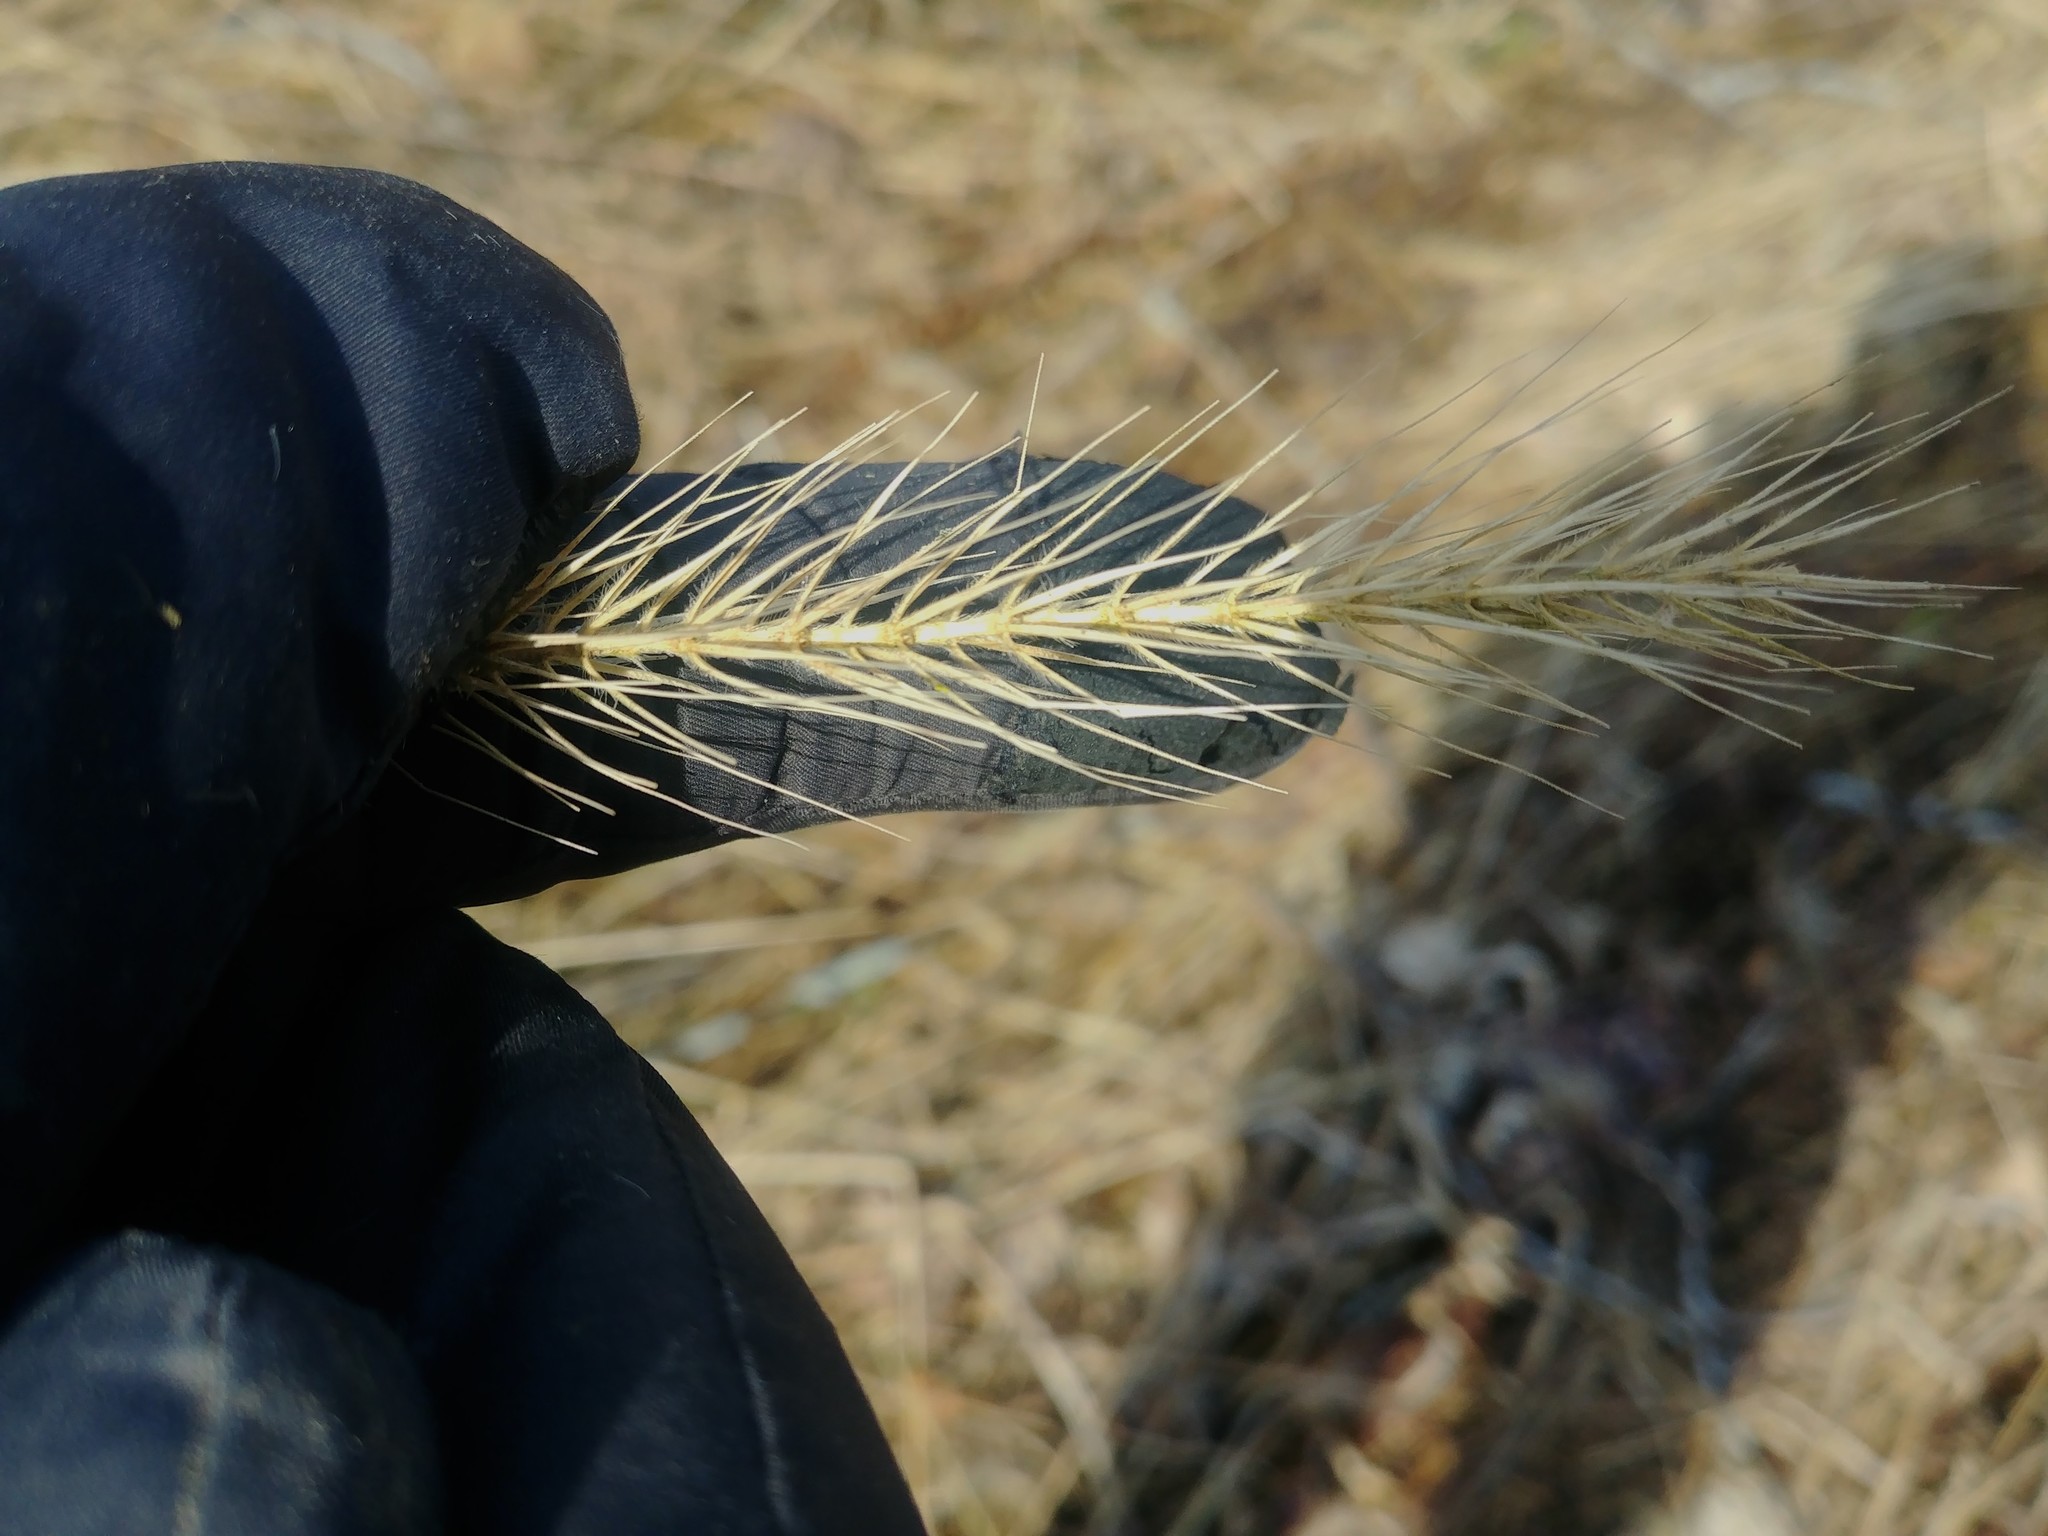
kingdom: Plantae
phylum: Tracheophyta
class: Liliopsida
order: Poales
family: Poaceae
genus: Elymus
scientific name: Elymus villosus
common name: Downy wild rye
